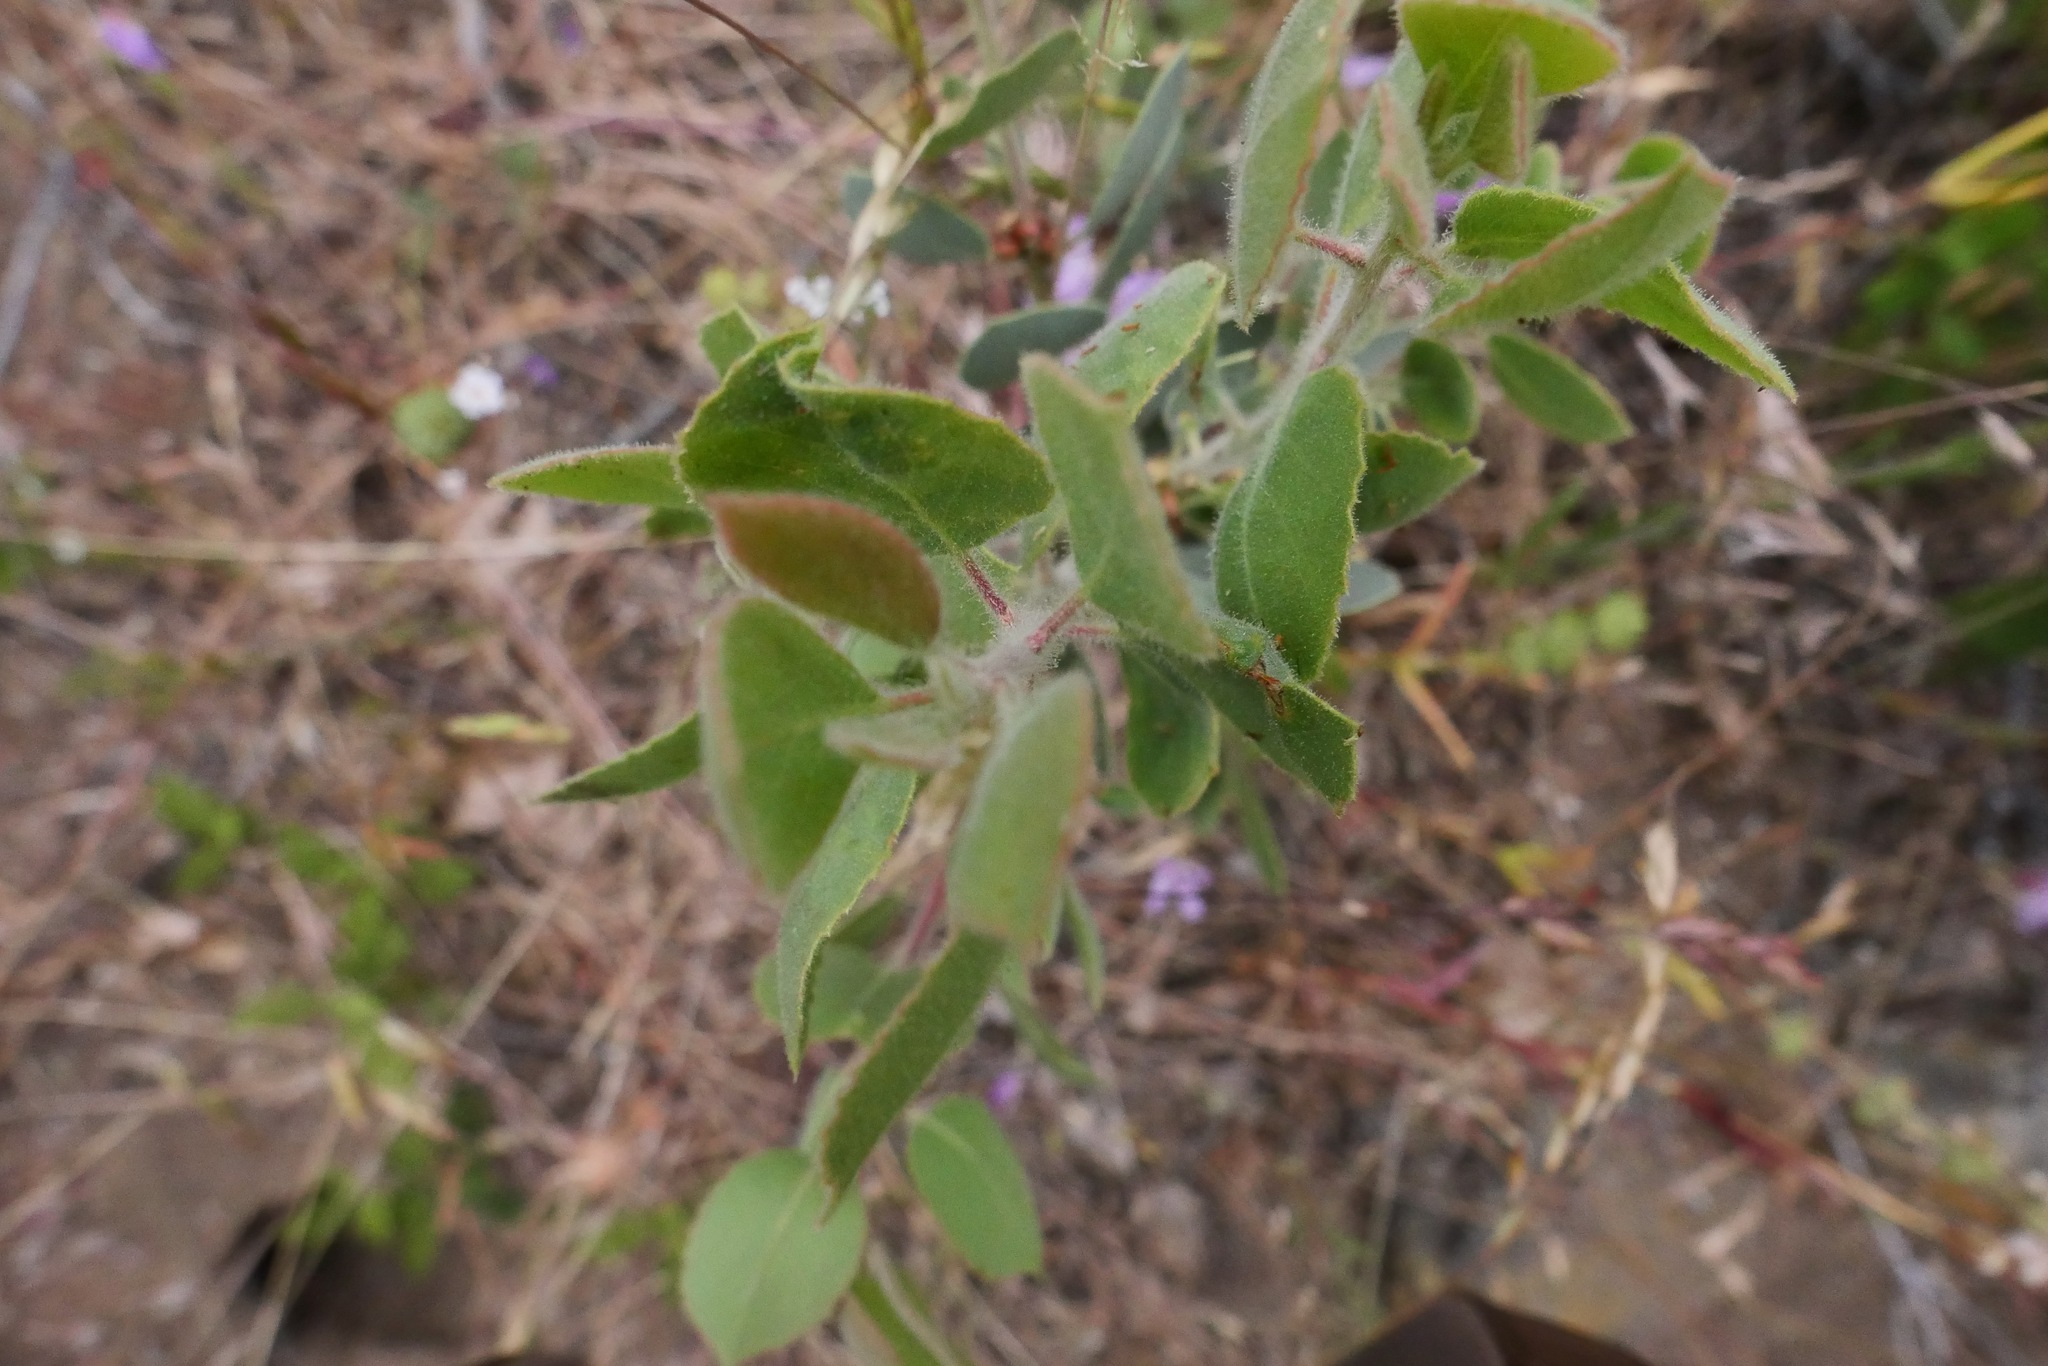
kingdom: Plantae
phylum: Tracheophyta
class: Magnoliopsida
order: Ericales
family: Ericaceae
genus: Arctostaphylos
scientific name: Arctostaphylos viscida
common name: White-leaf manzanita
